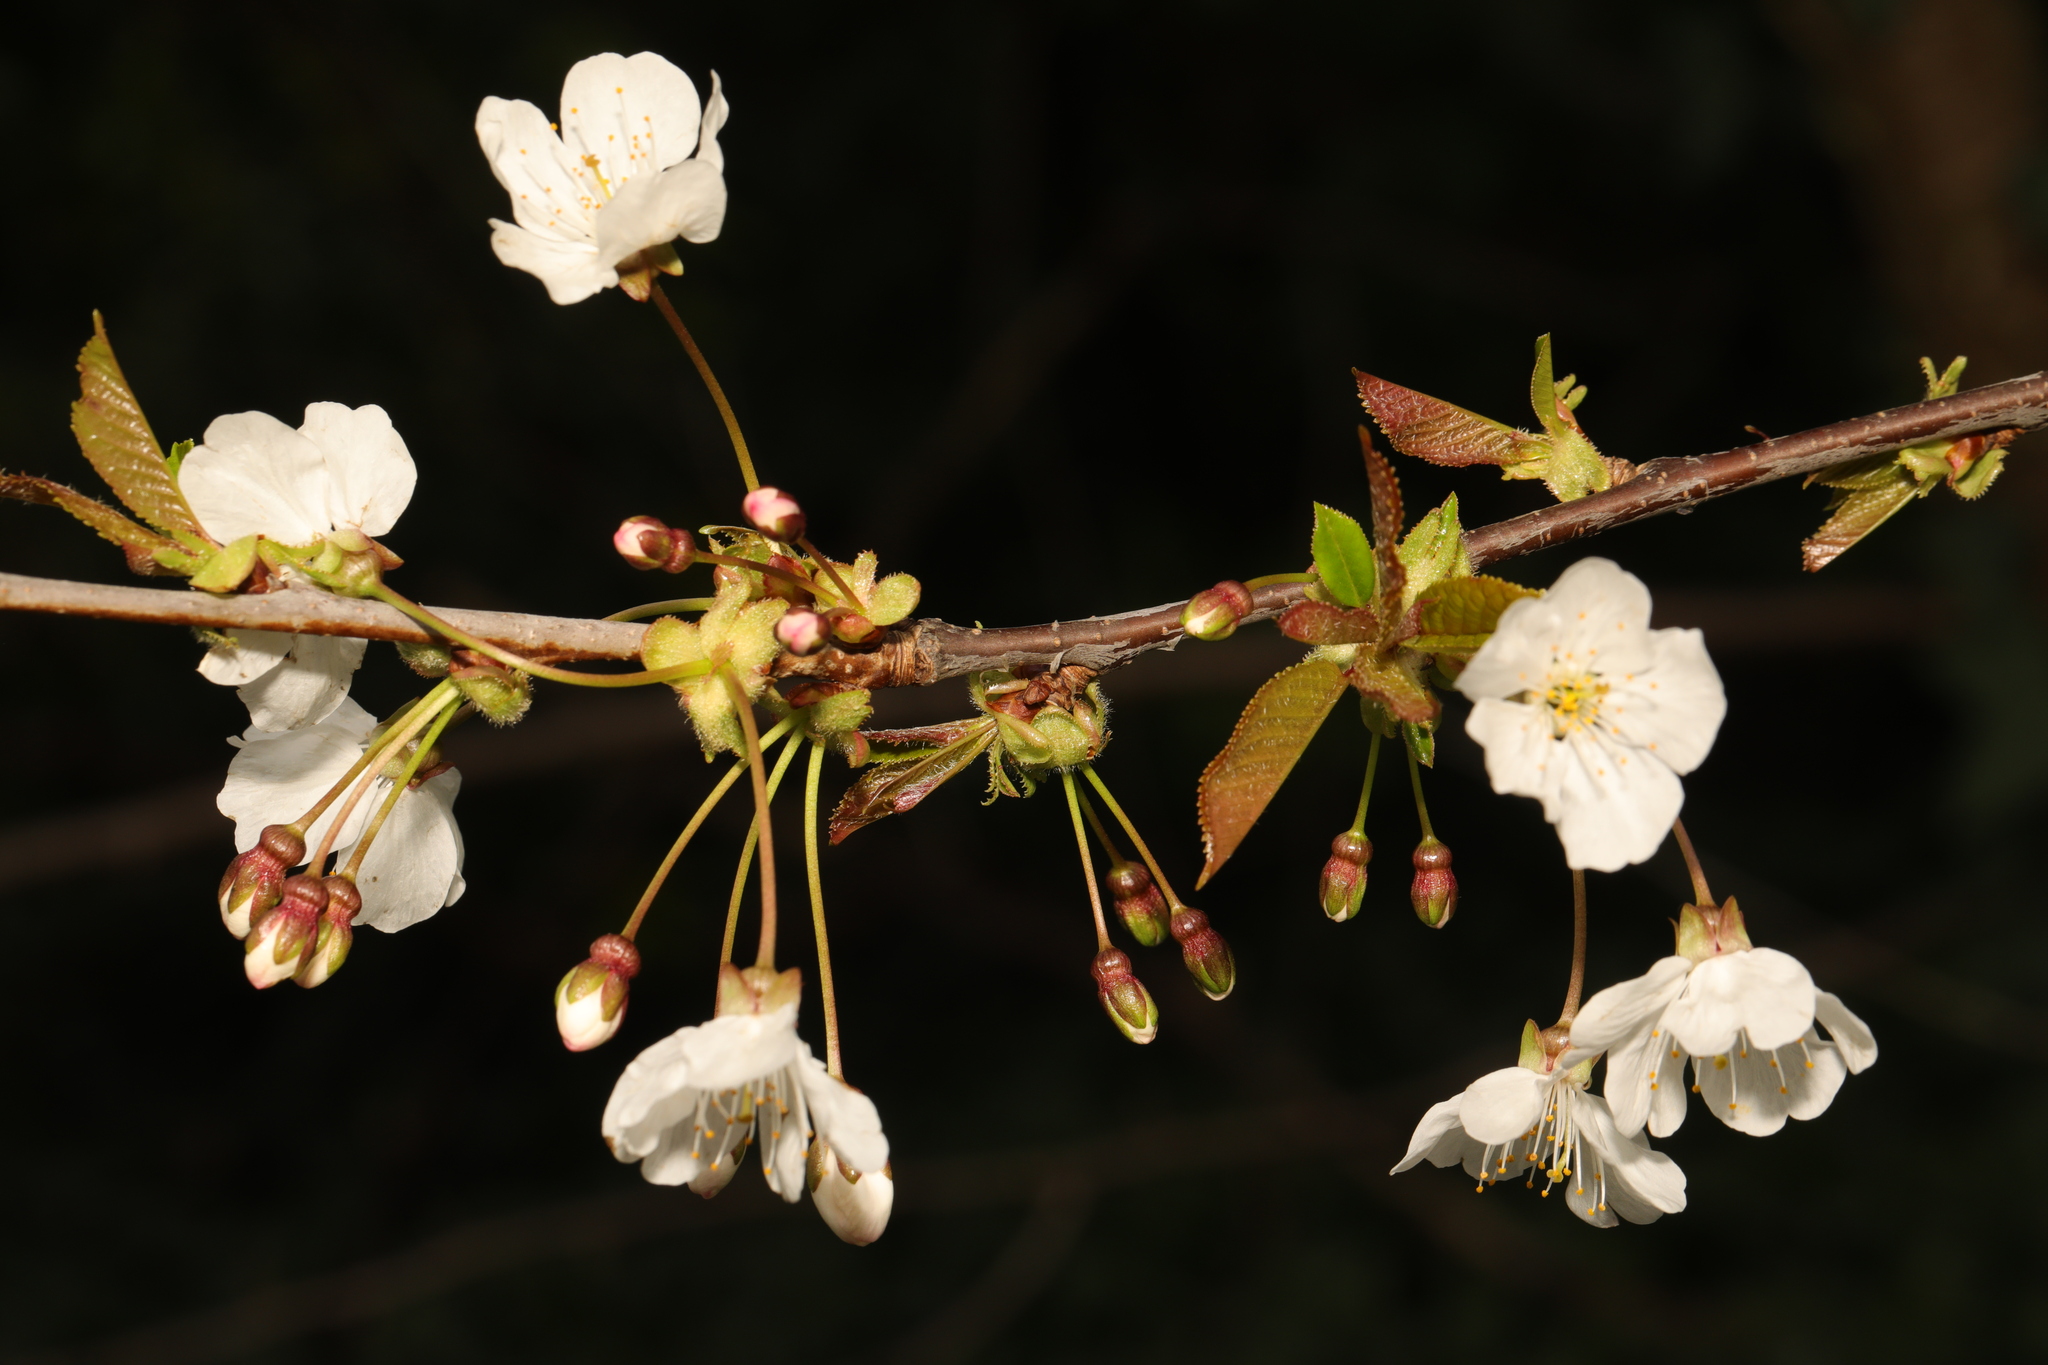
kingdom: Plantae
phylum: Tracheophyta
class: Magnoliopsida
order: Rosales
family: Rosaceae
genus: Prunus
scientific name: Prunus avium
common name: Sweet cherry
